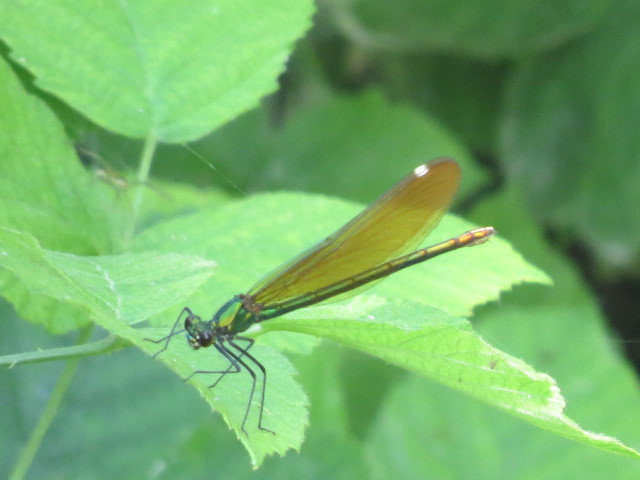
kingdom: Animalia
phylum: Arthropoda
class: Insecta
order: Odonata
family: Calopterygidae
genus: Calopteryx
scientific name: Calopteryx virgo
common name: Beautiful demoiselle
